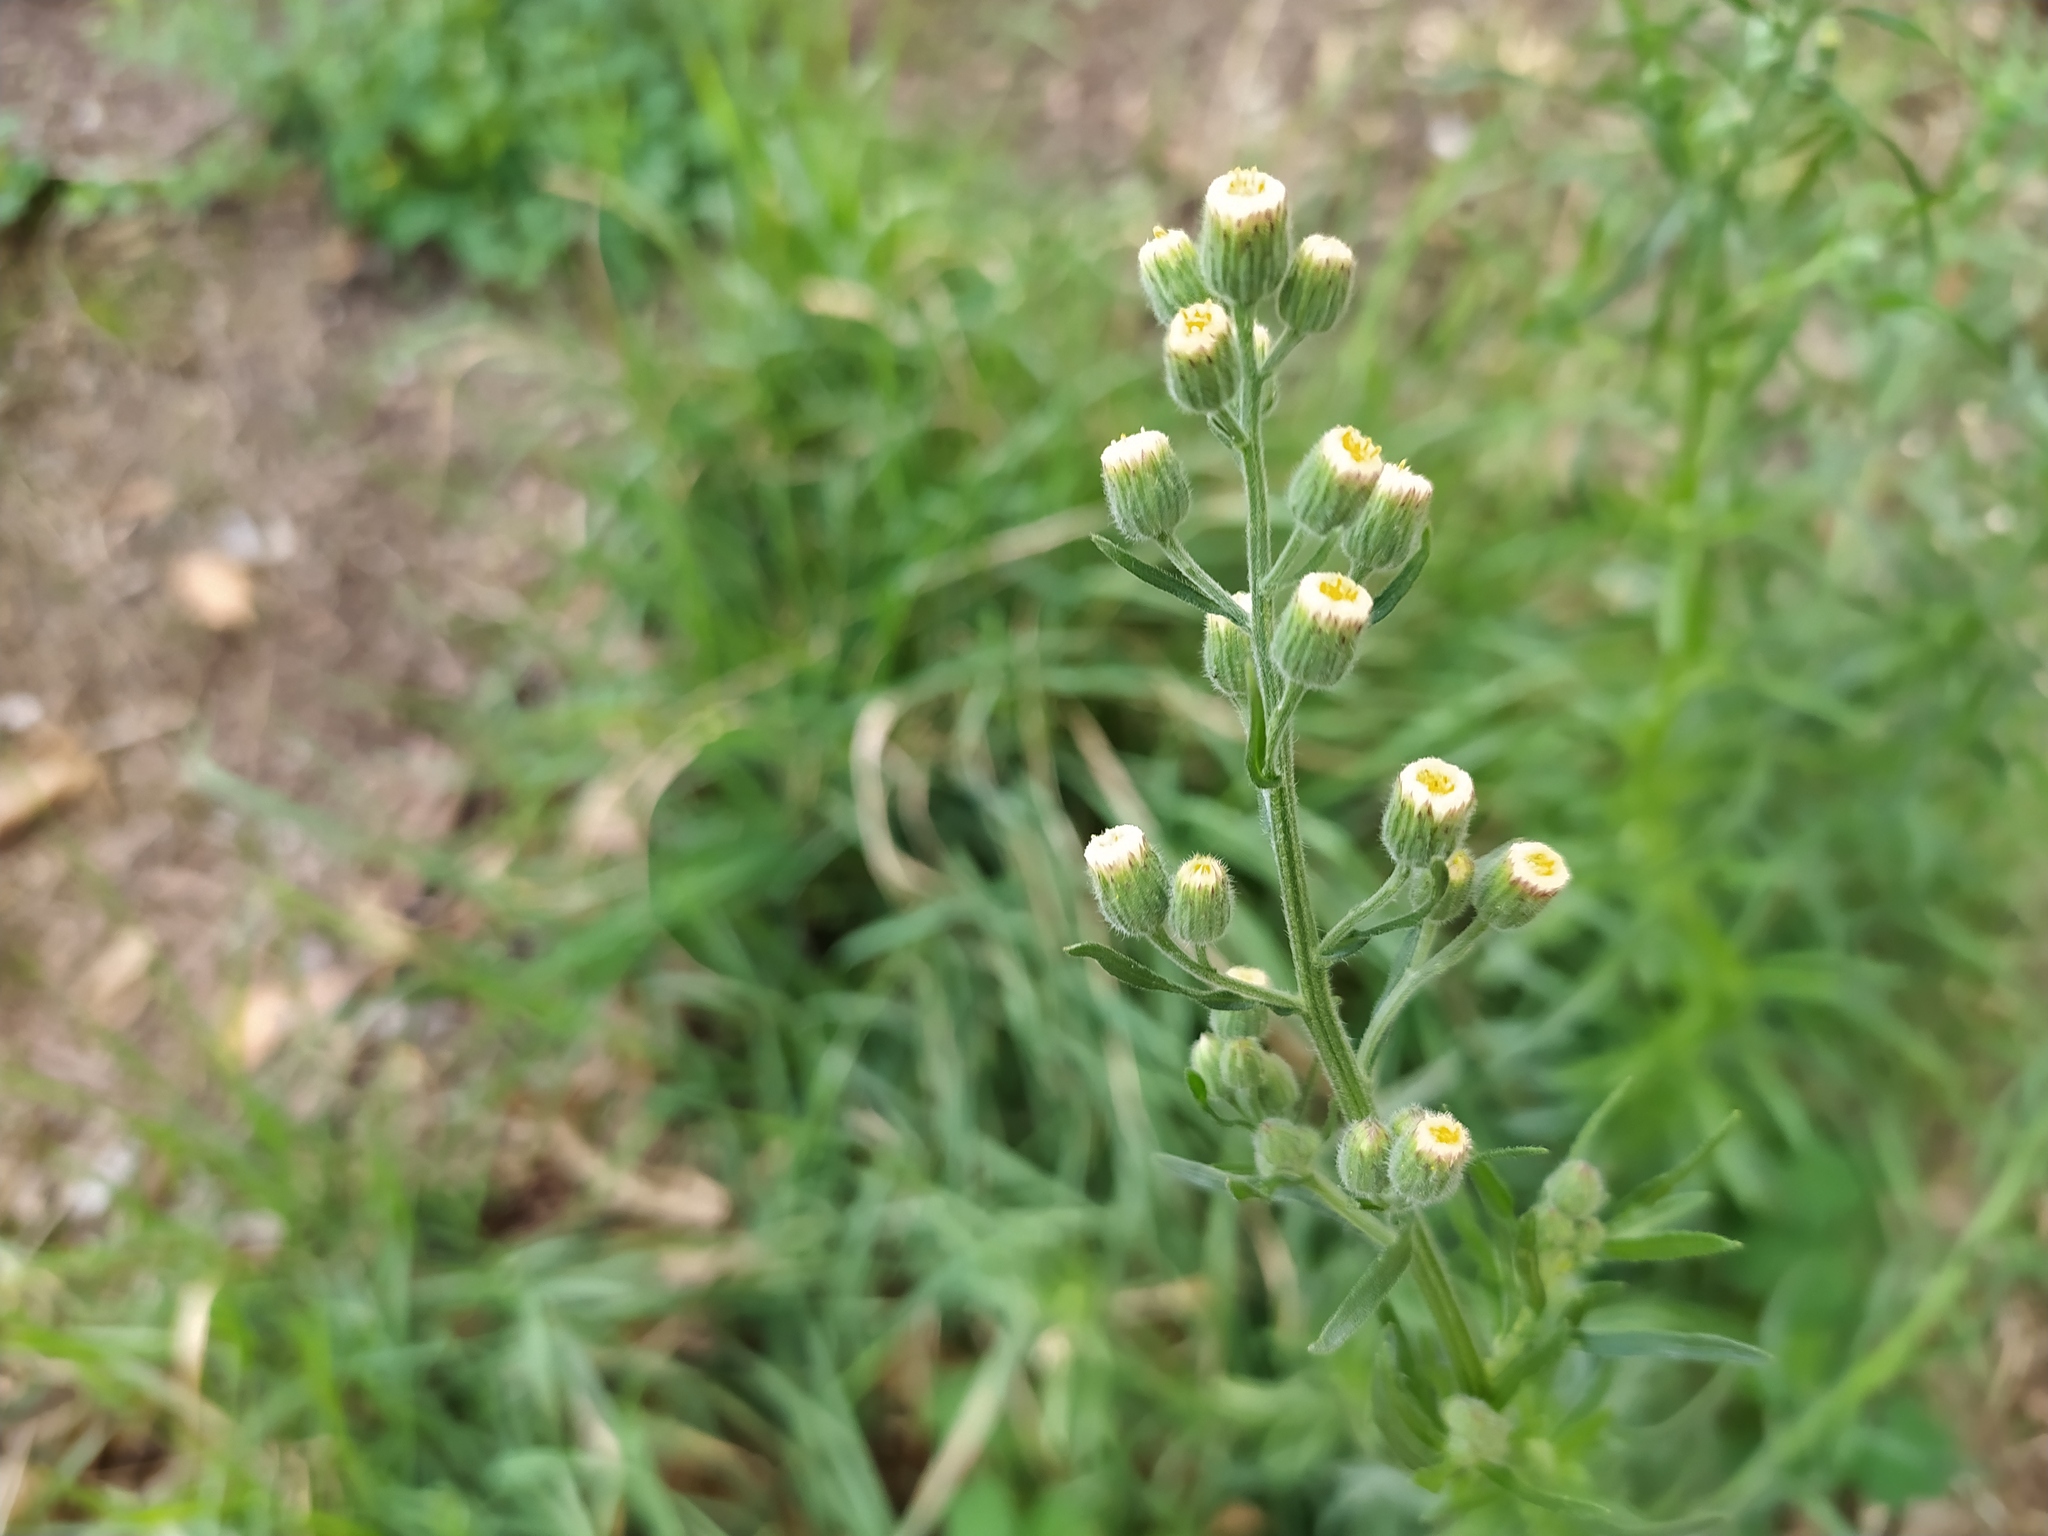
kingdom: Plantae
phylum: Tracheophyta
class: Magnoliopsida
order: Asterales
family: Asteraceae
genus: Erigeron
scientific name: Erigeron bonariensis
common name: Argentine fleabane
